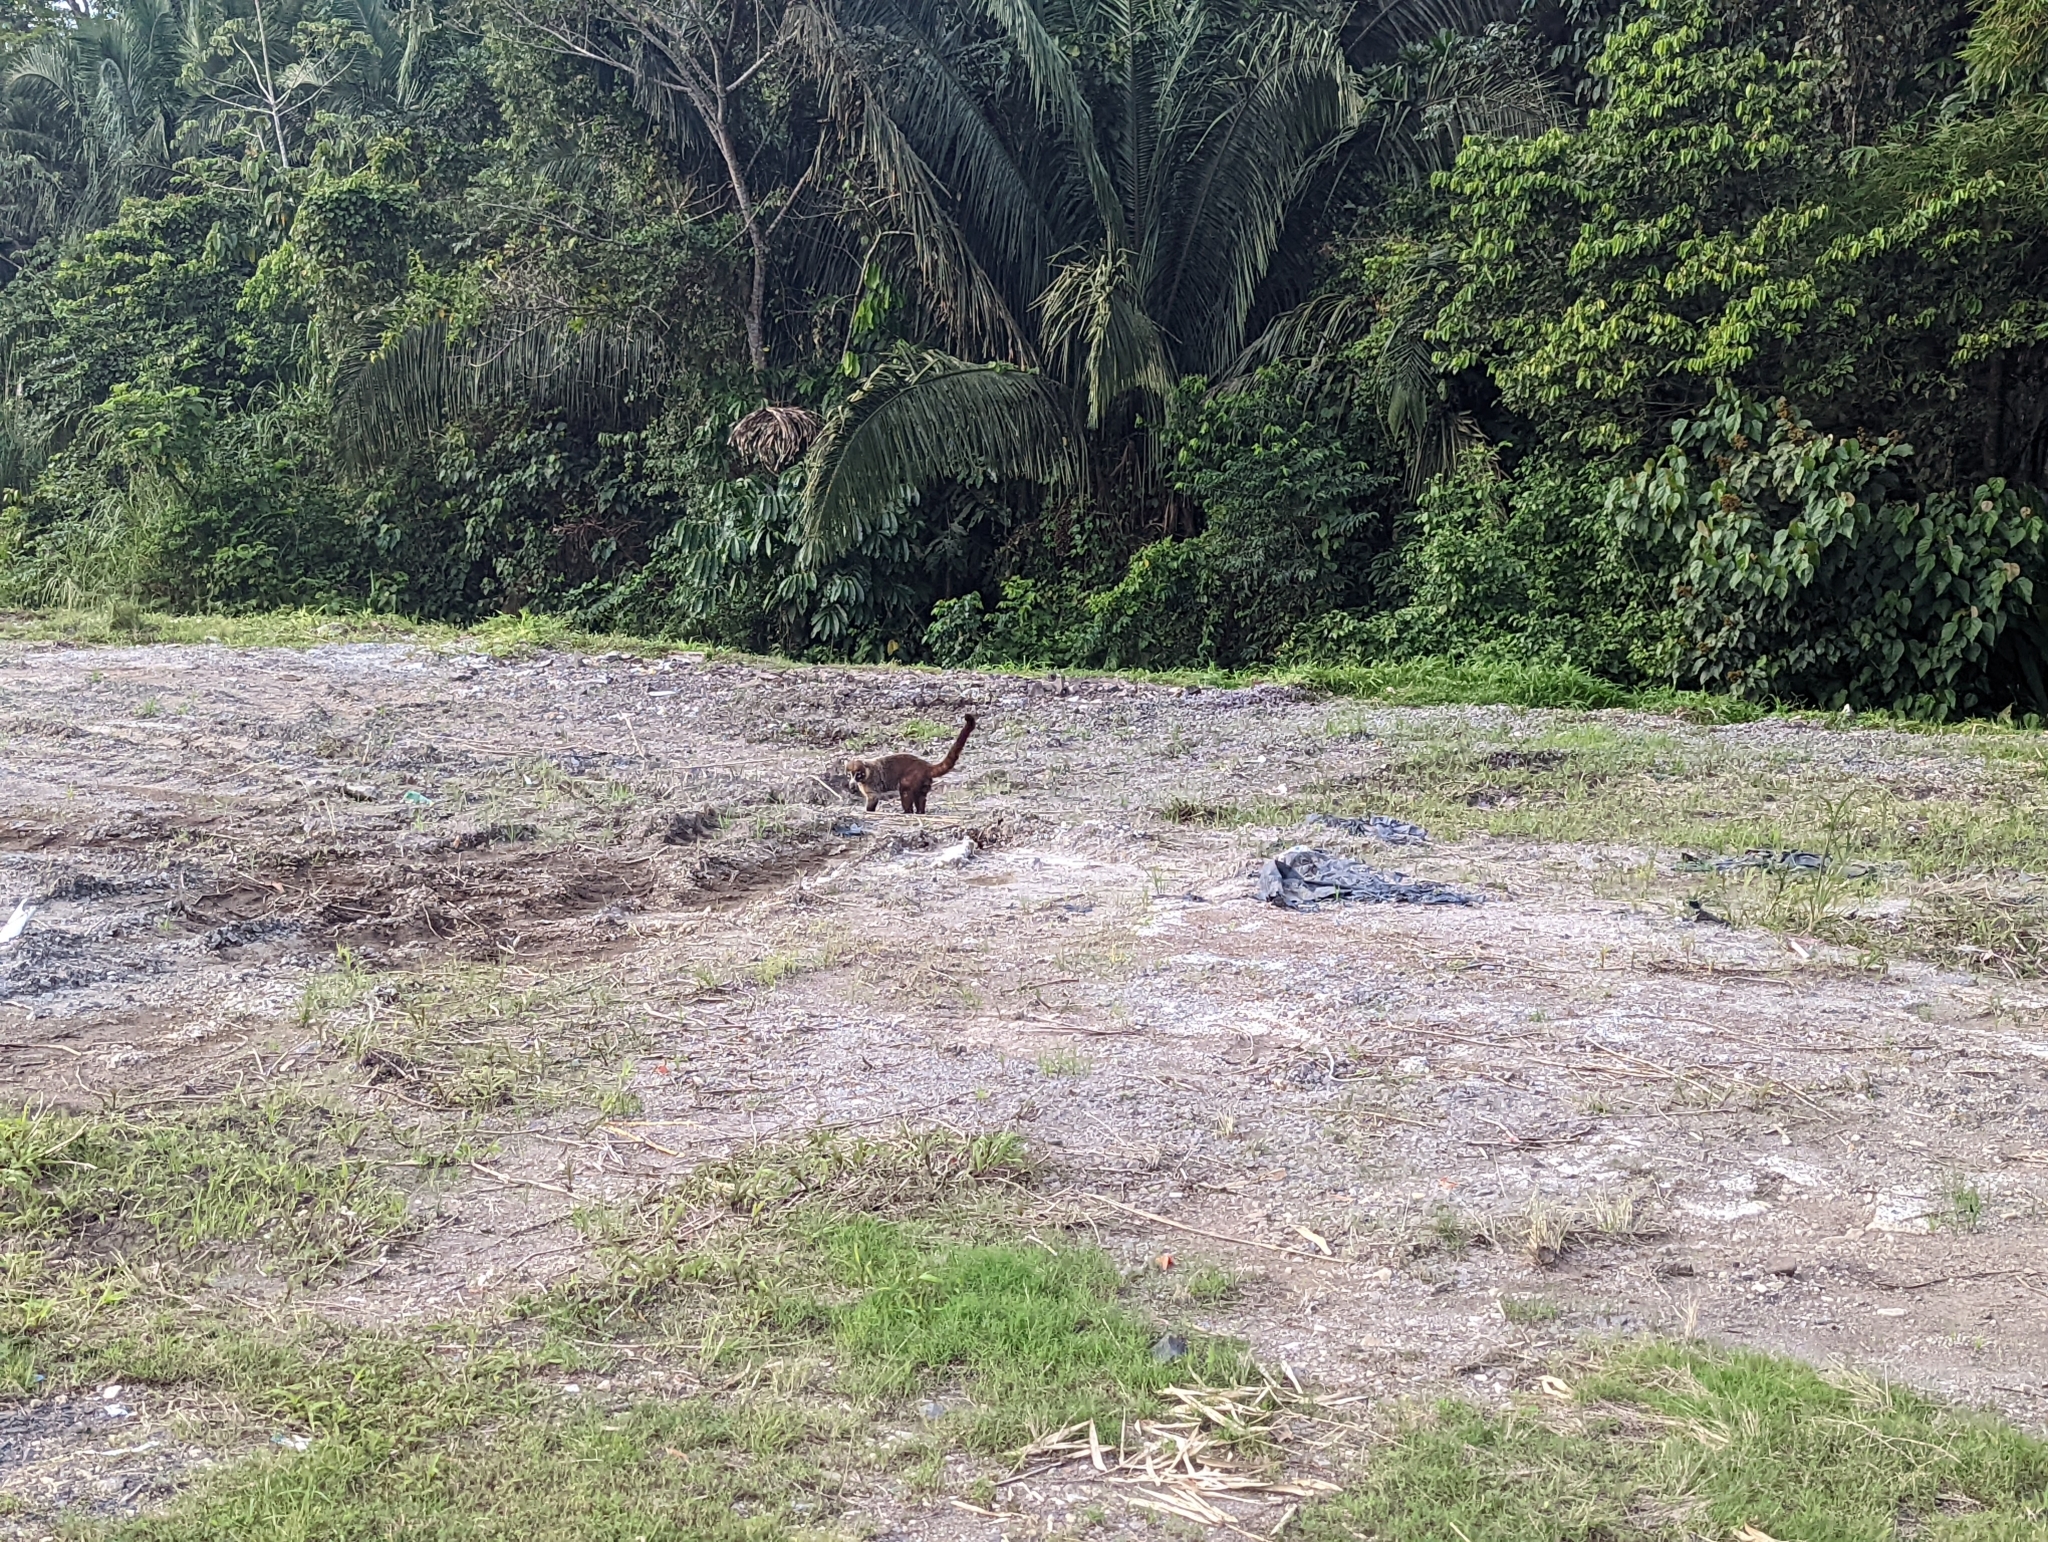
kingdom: Animalia
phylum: Chordata
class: Mammalia
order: Carnivora
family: Procyonidae
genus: Nasua
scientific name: Nasua narica
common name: White-nosed coati
